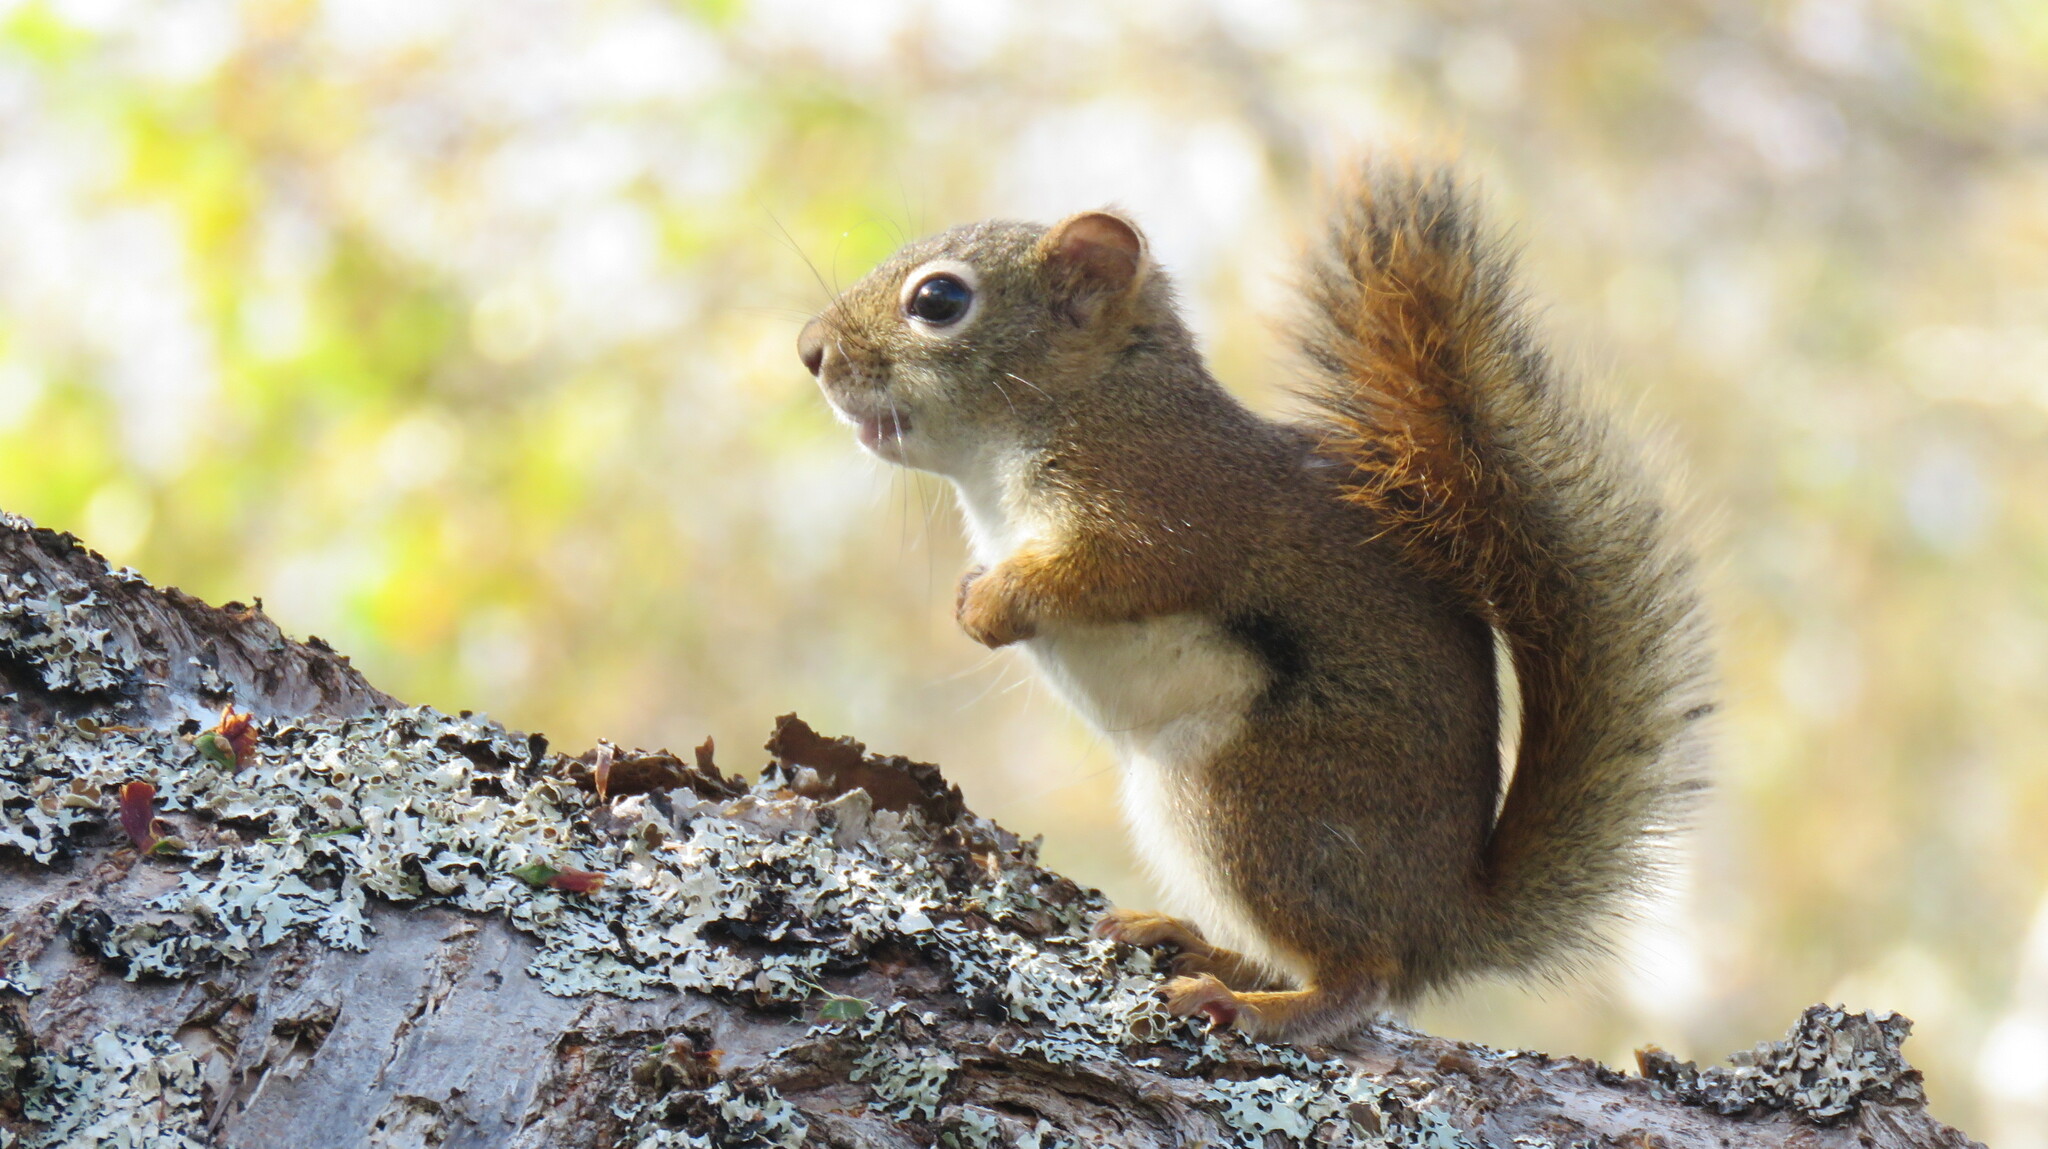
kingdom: Animalia
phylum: Chordata
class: Mammalia
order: Rodentia
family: Sciuridae
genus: Tamiasciurus
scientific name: Tamiasciurus hudsonicus
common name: Red squirrel
